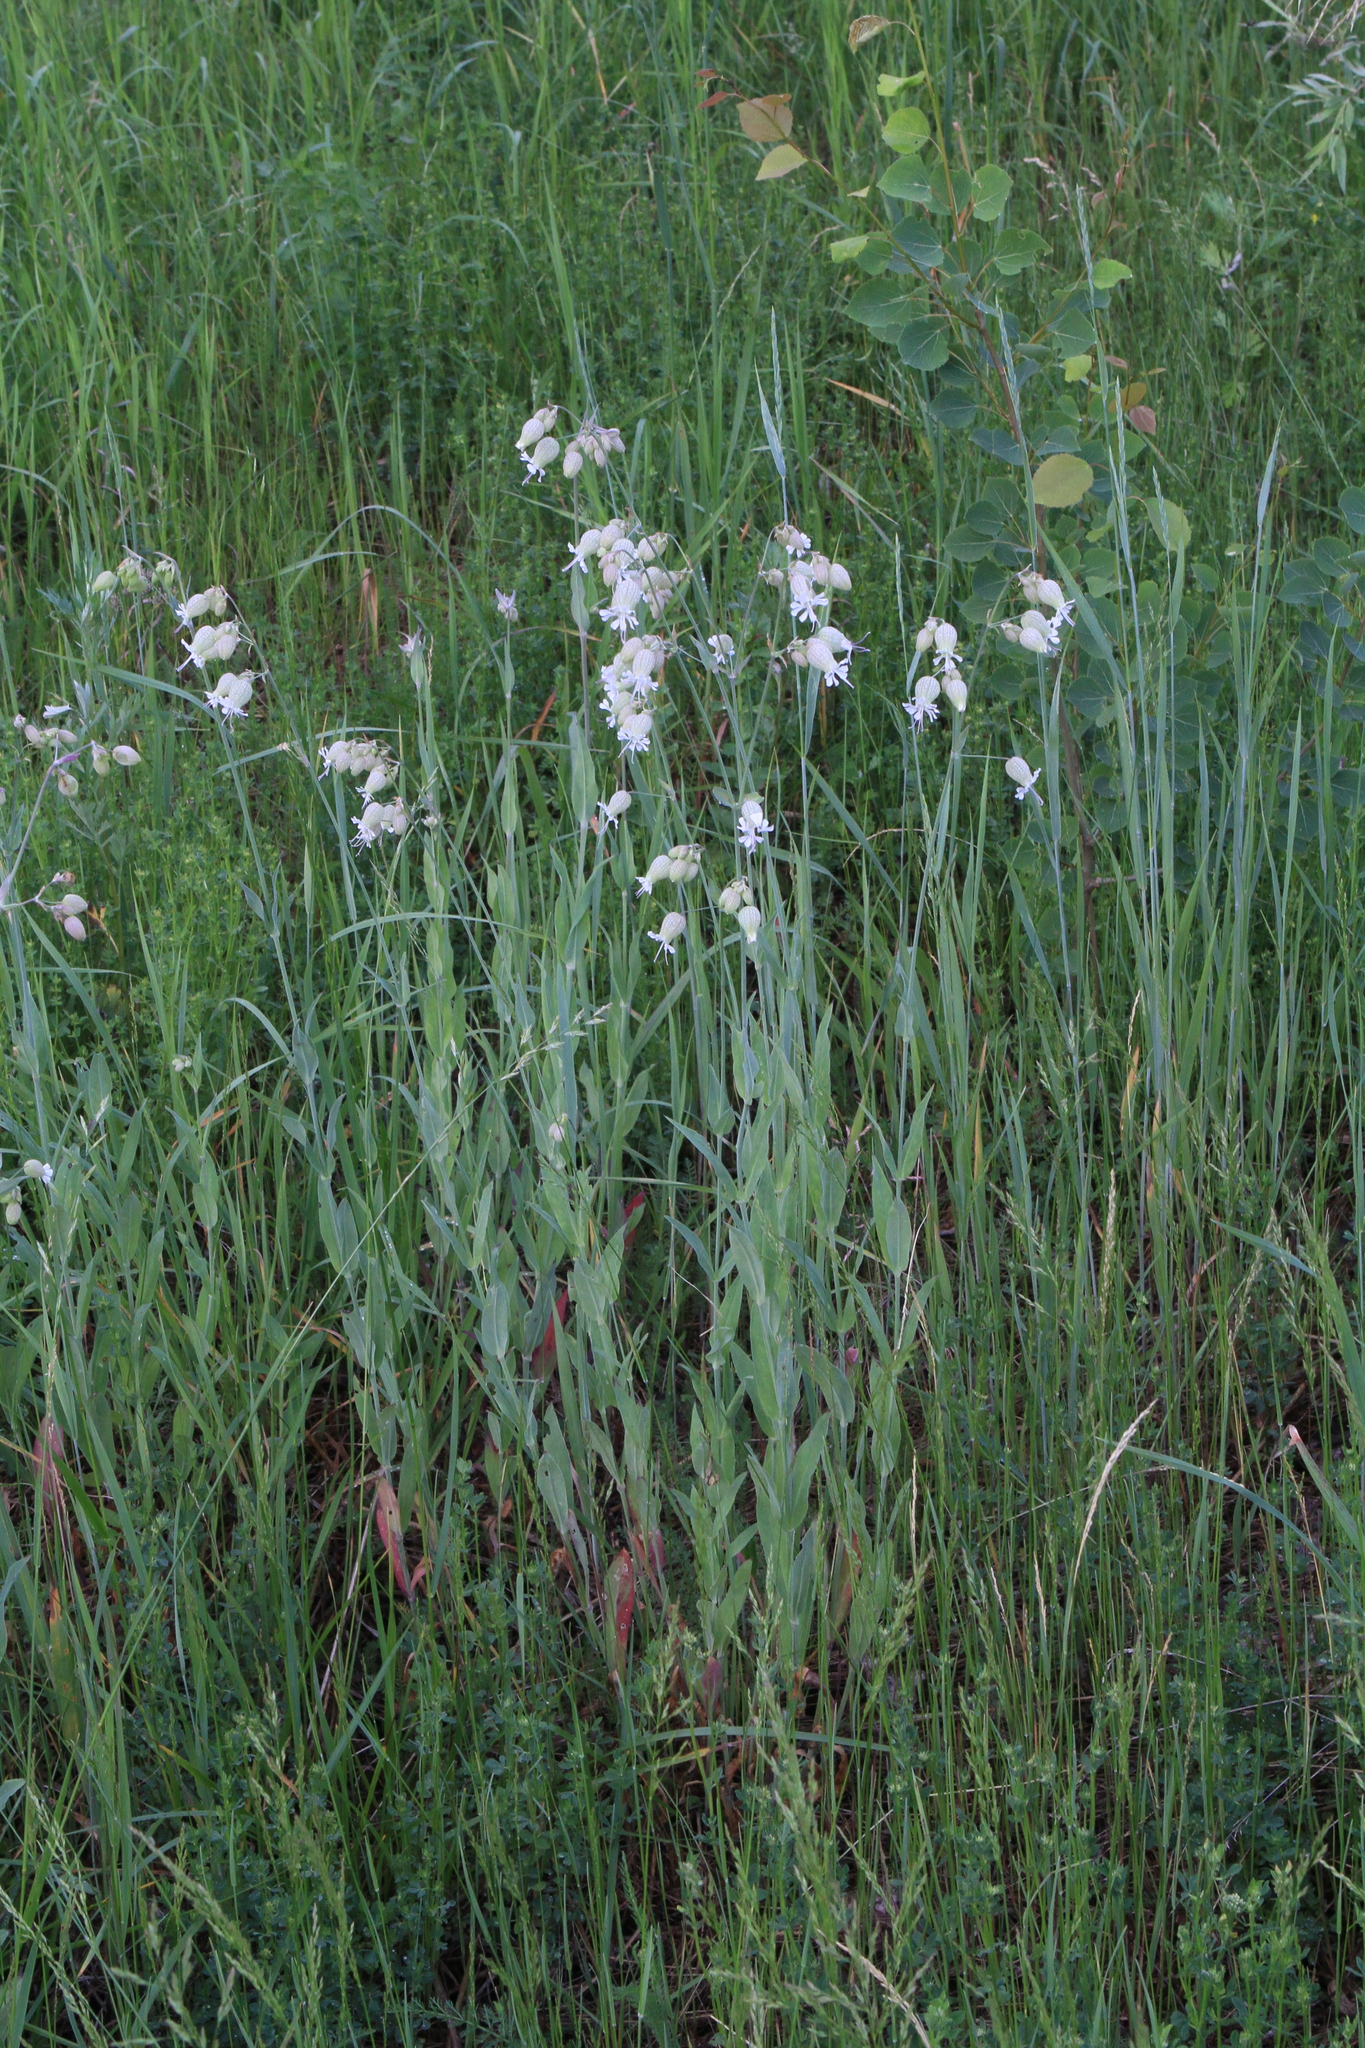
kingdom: Plantae
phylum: Tracheophyta
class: Magnoliopsida
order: Caryophyllales
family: Caryophyllaceae
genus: Silene
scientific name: Silene vulgaris
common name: Bladder campion
